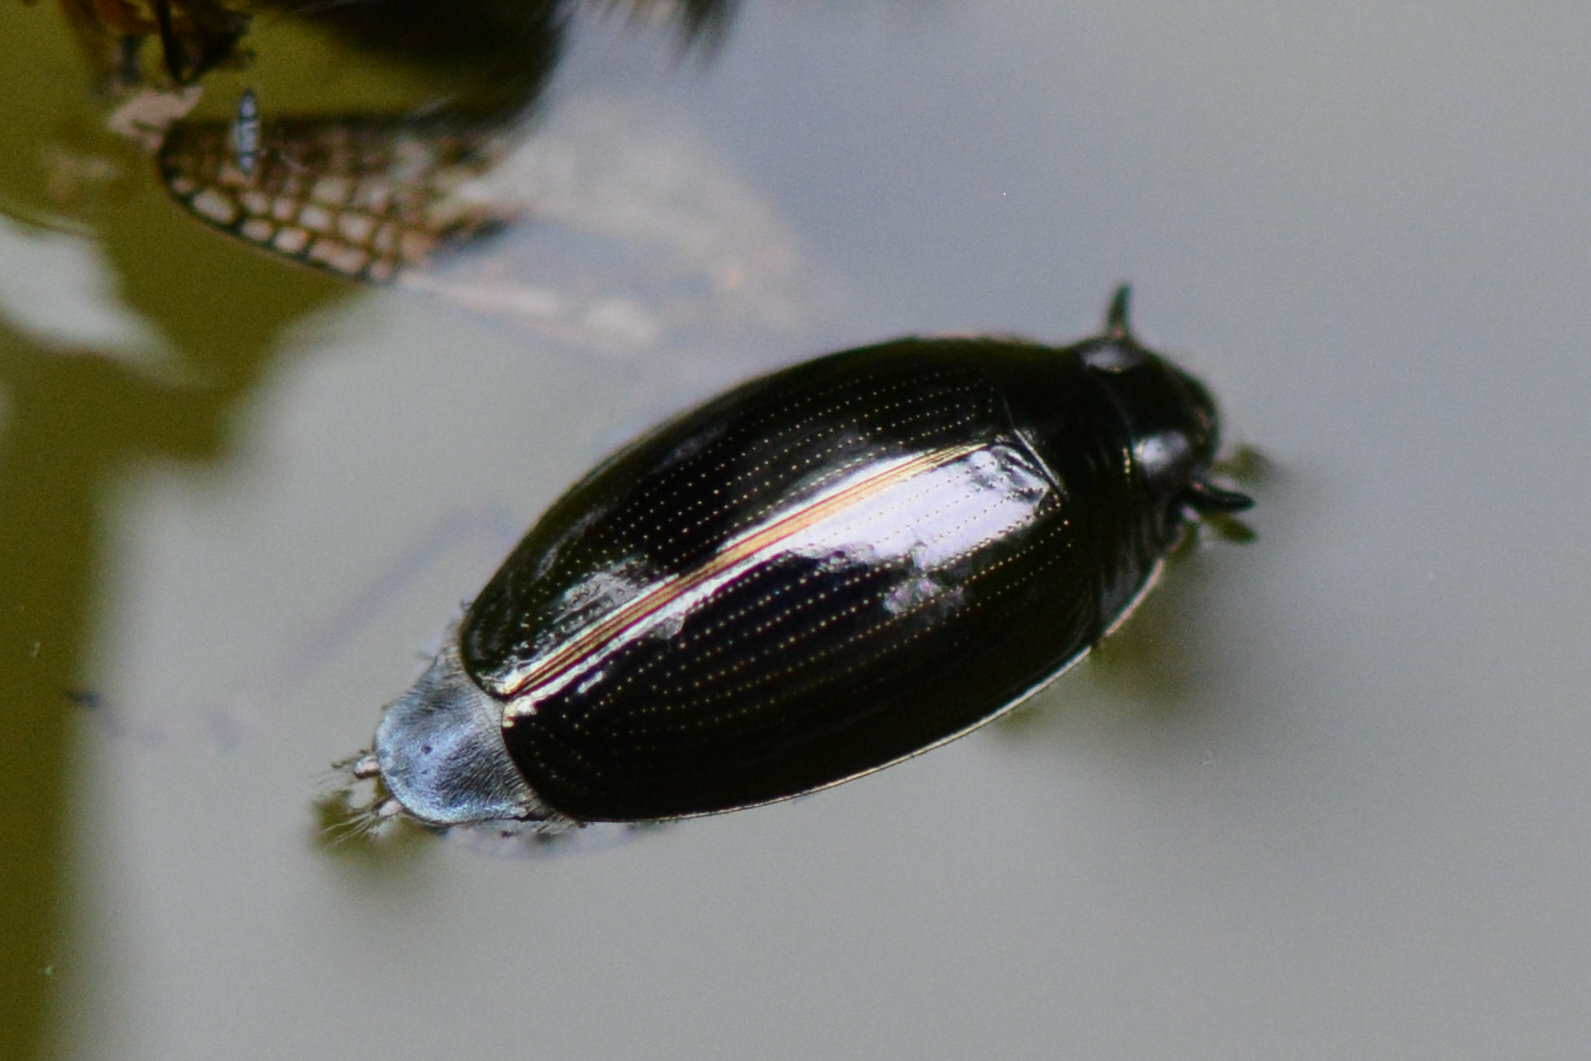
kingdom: Animalia
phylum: Arthropoda
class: Insecta
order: Coleoptera
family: Gyrinidae
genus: Gyrinus
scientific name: Gyrinus
